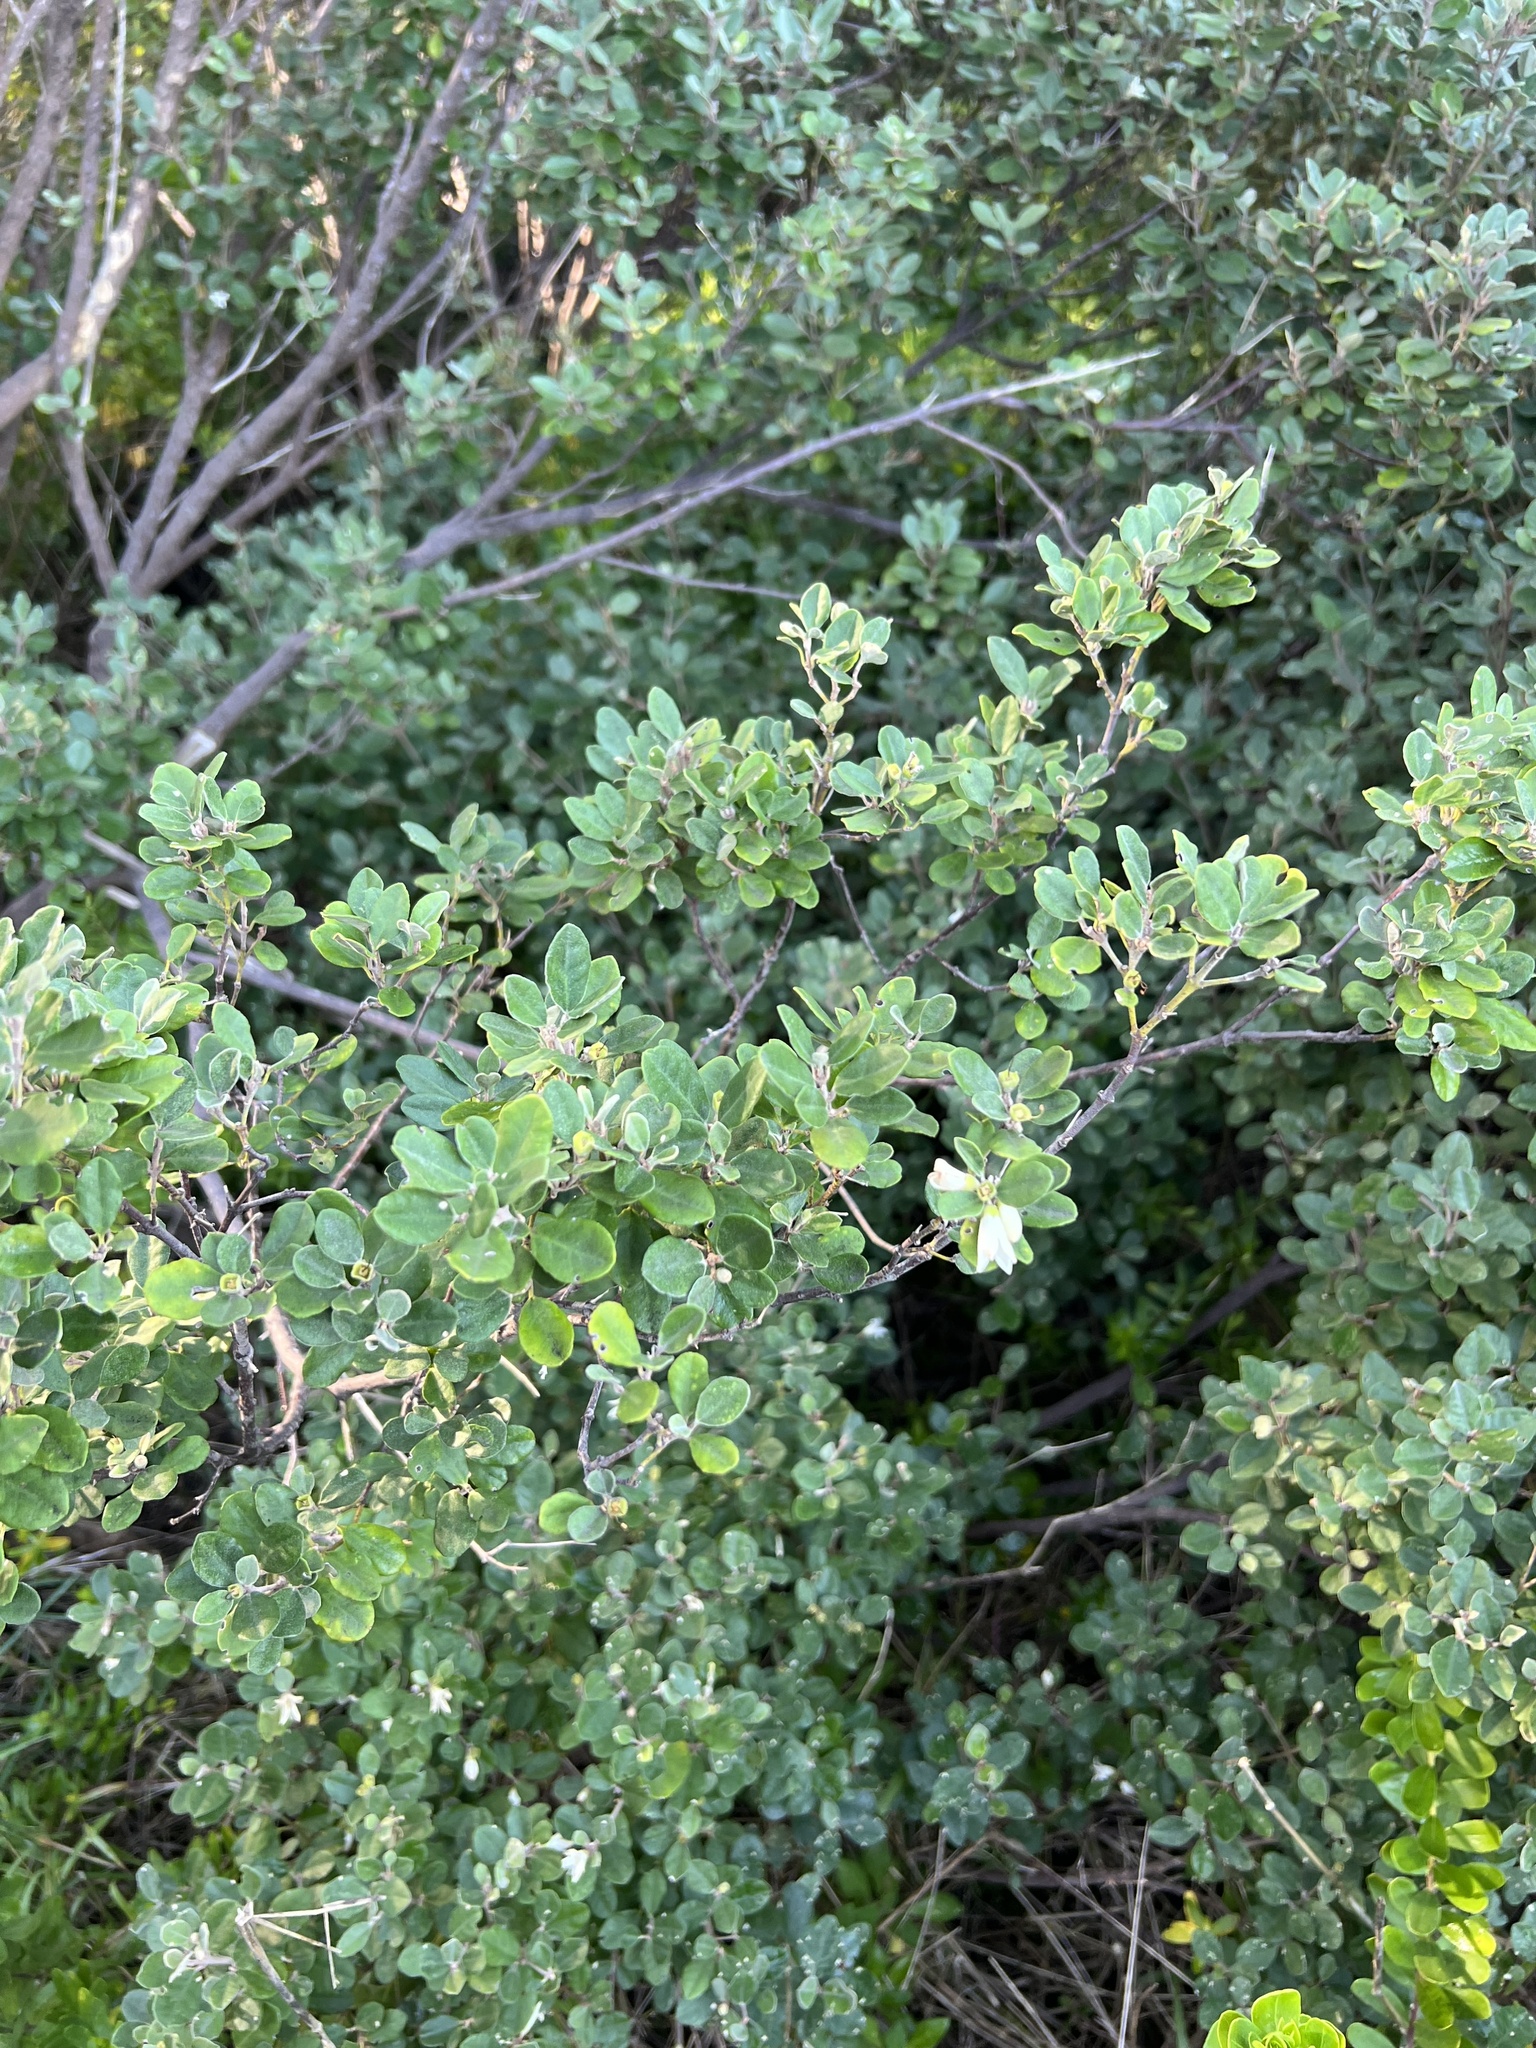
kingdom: Plantae
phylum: Tracheophyta
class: Magnoliopsida
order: Sapindales
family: Rutaceae
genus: Correa
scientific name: Correa alba
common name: White correa
